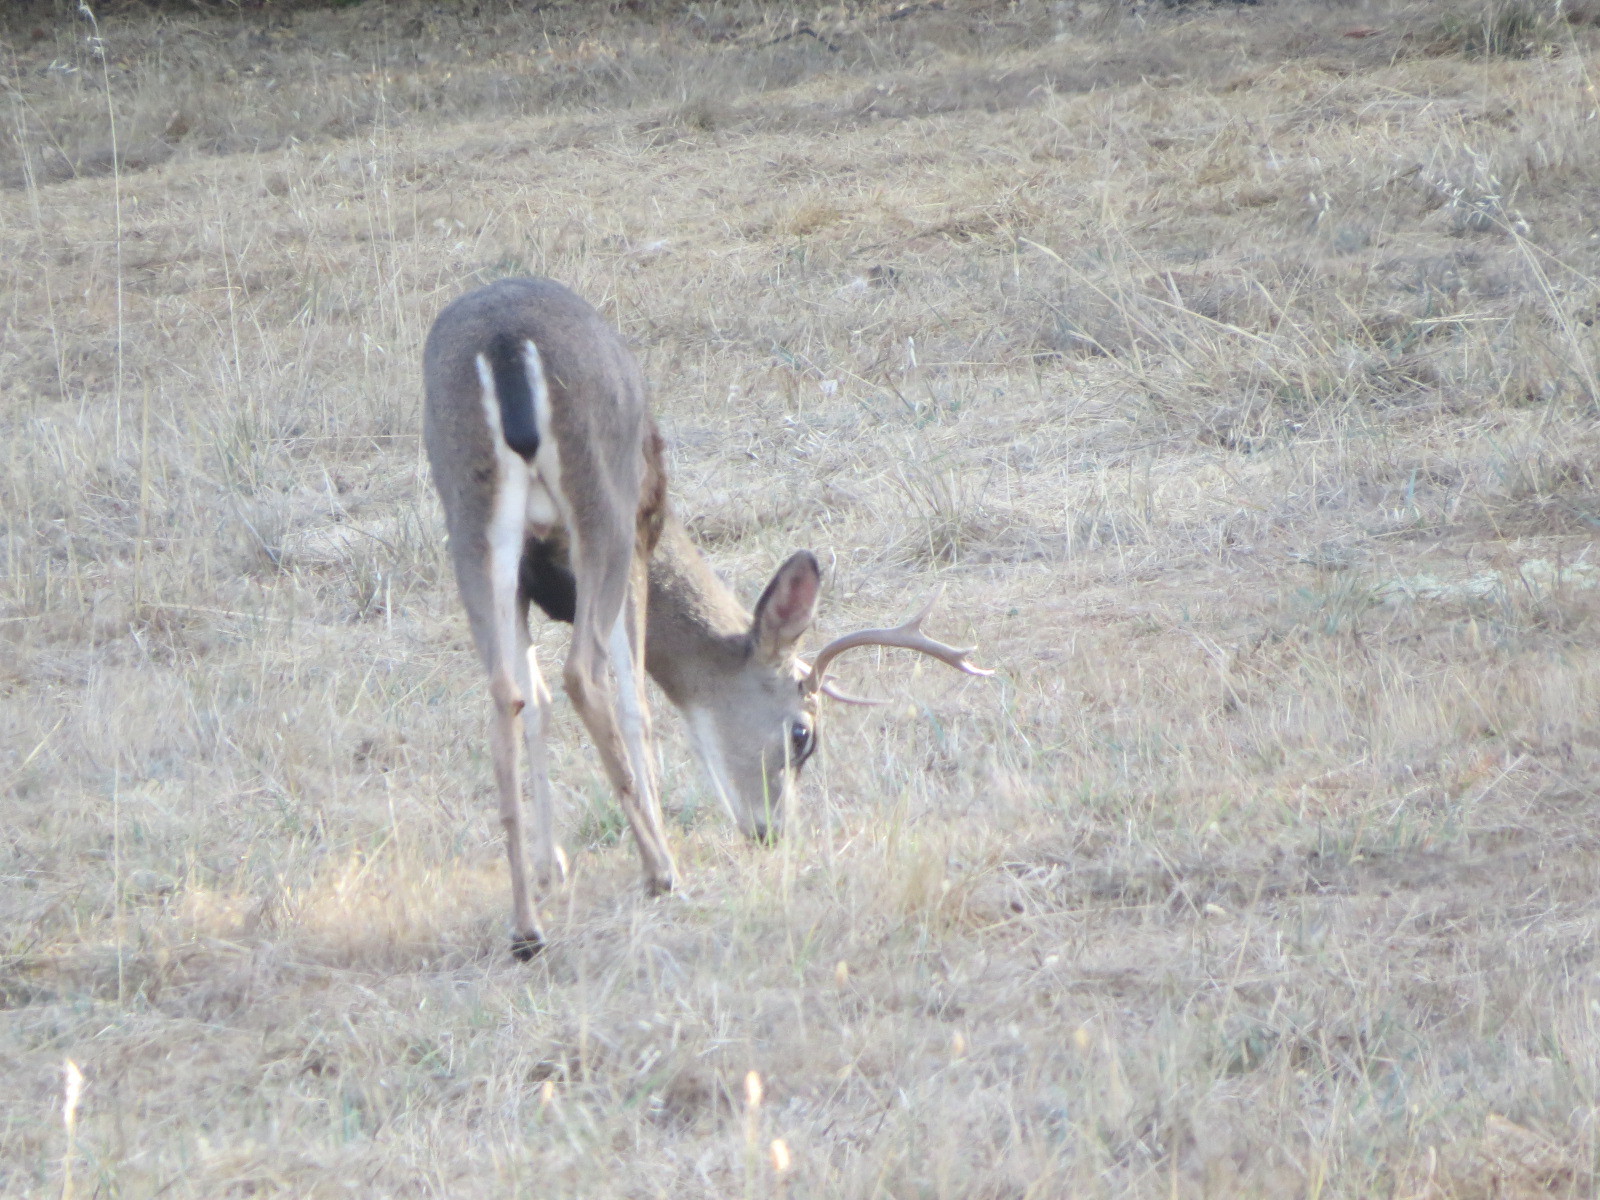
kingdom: Animalia
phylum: Chordata
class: Mammalia
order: Artiodactyla
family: Cervidae
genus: Odocoileus
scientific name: Odocoileus hemionus
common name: Mule deer
